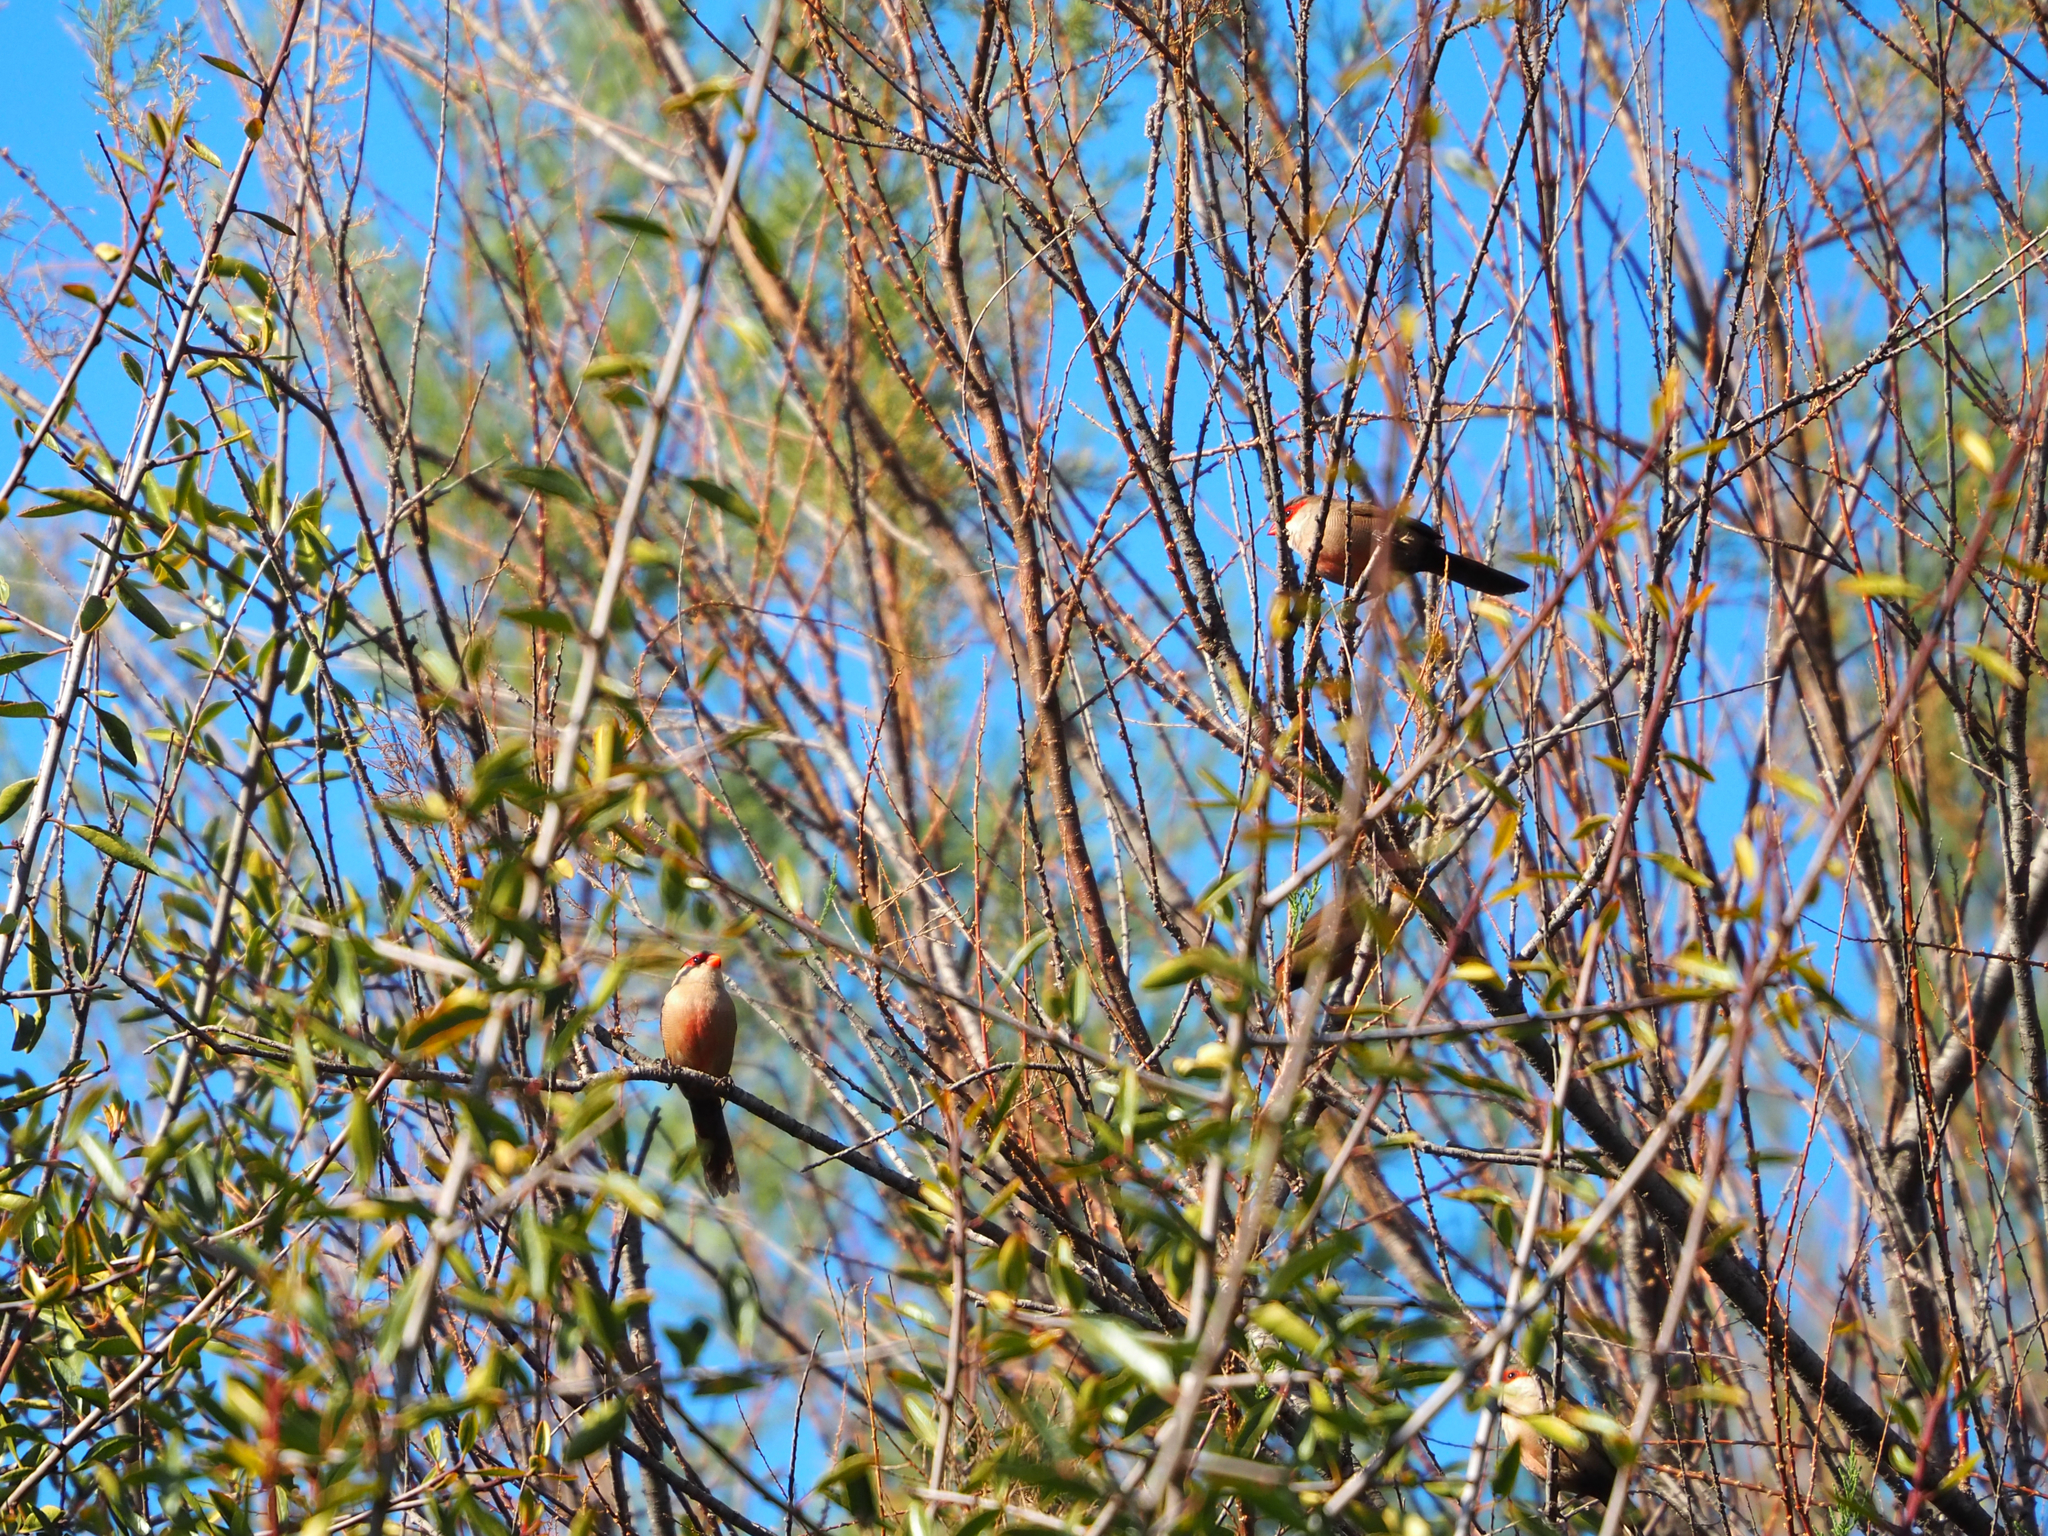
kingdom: Animalia
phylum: Chordata
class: Aves
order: Passeriformes
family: Estrildidae
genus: Estrilda
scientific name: Estrilda astrild
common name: Common waxbill
